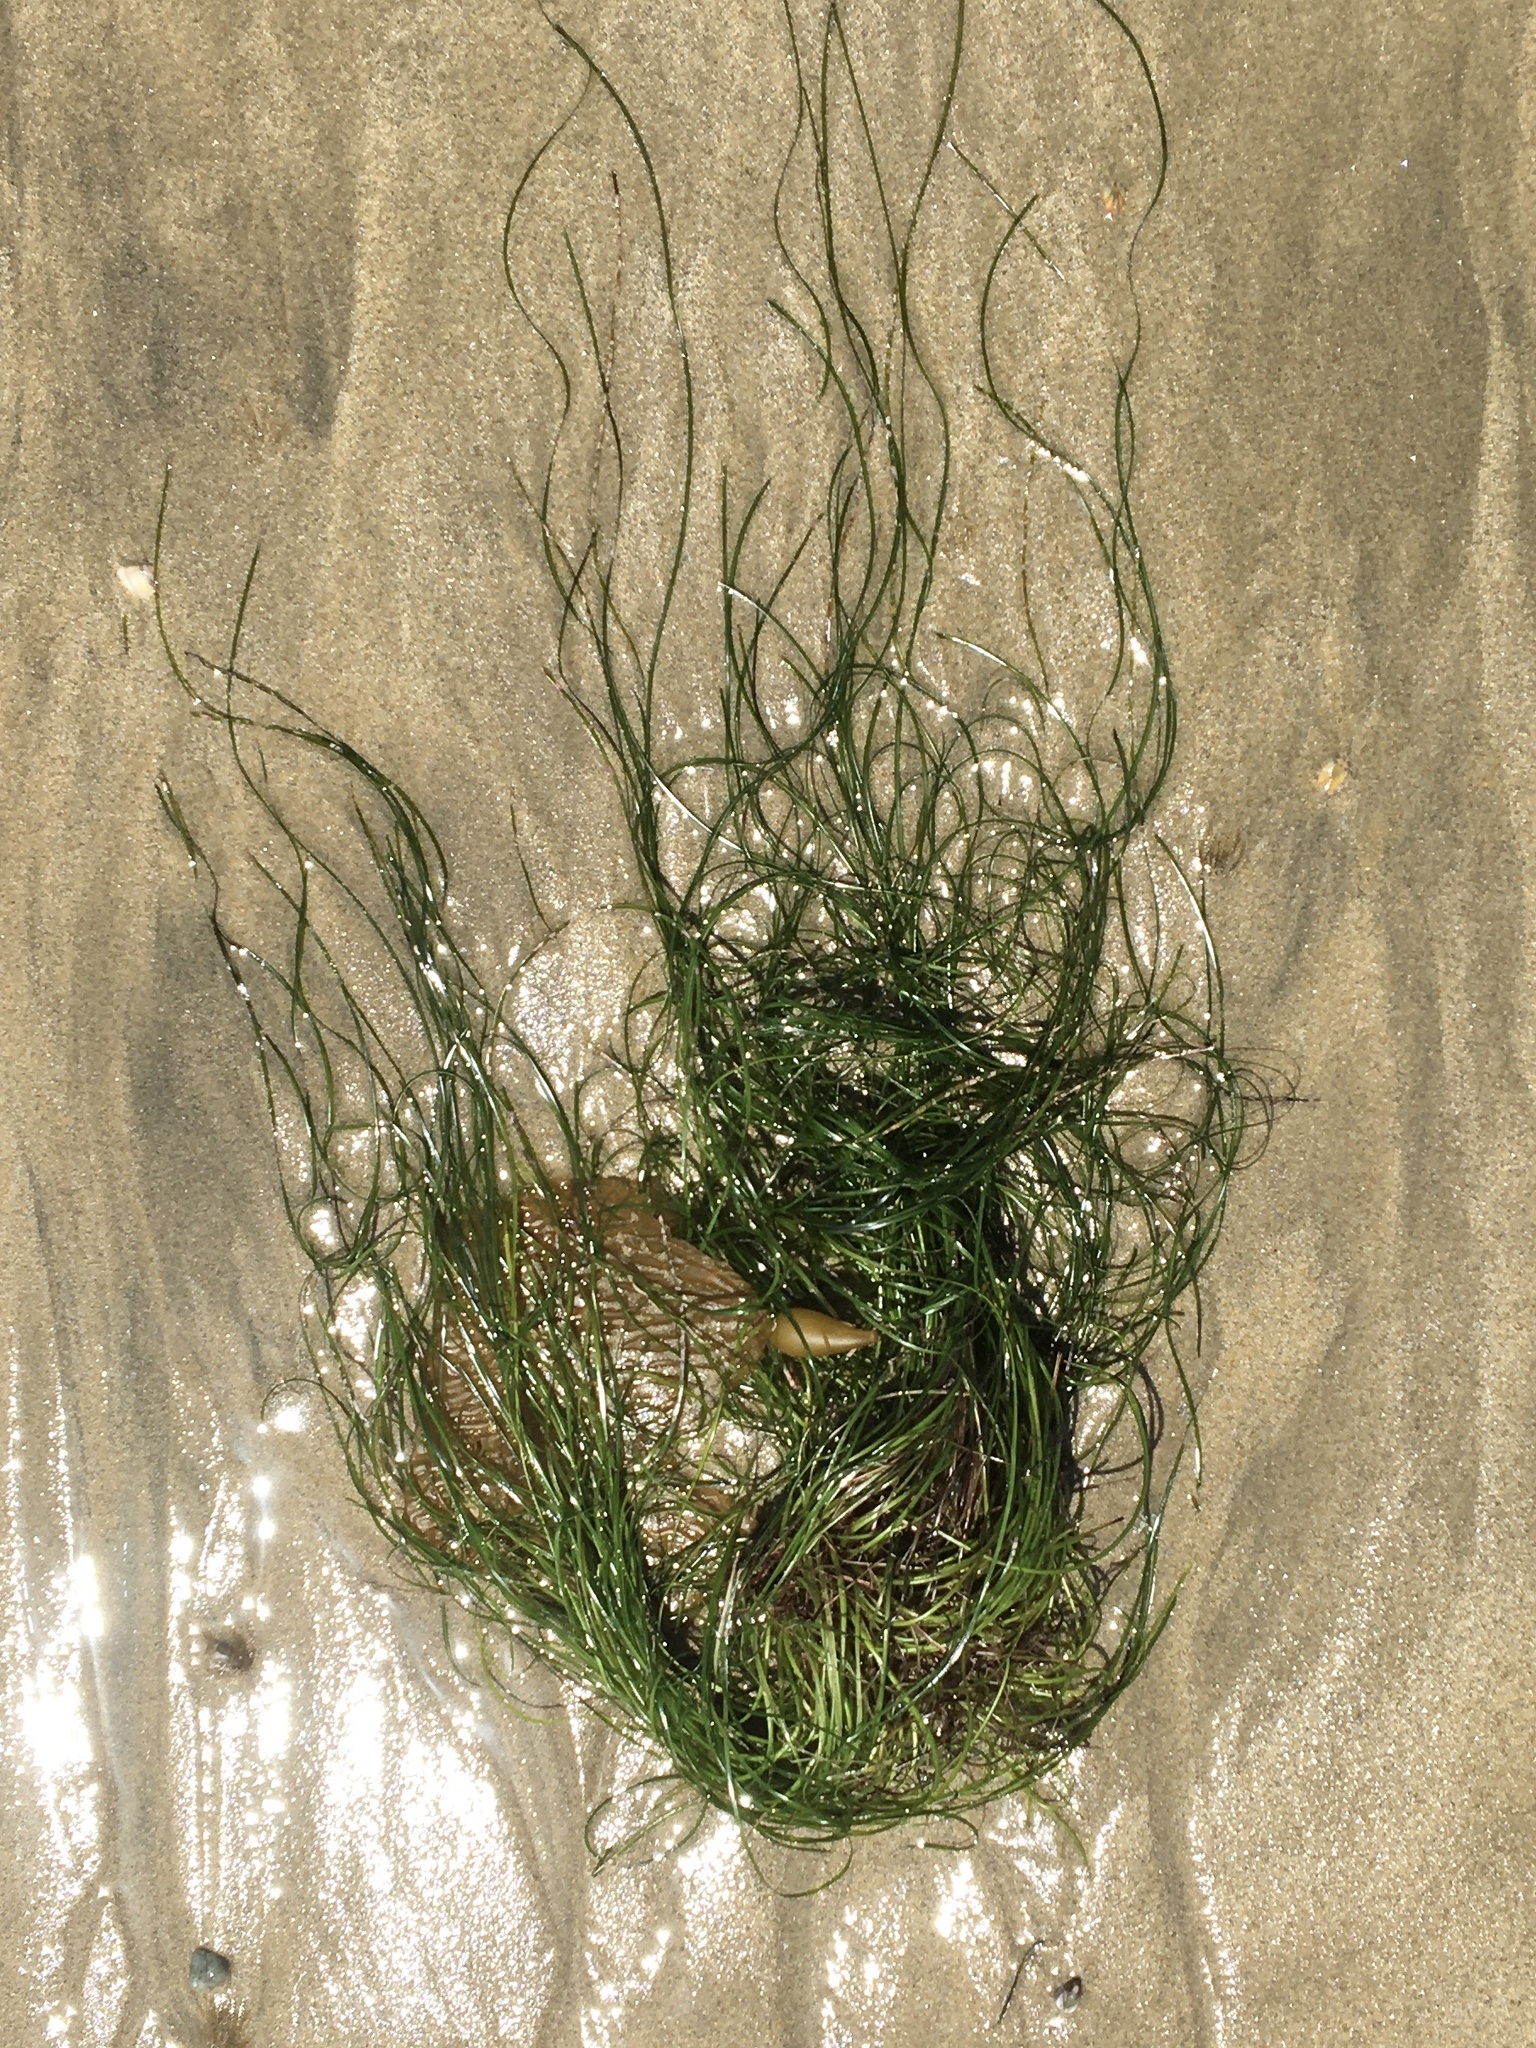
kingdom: Plantae
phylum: Tracheophyta
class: Liliopsida
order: Alismatales
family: Zosteraceae
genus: Phyllospadix
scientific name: Phyllospadix torreyi
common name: Surfgrass
